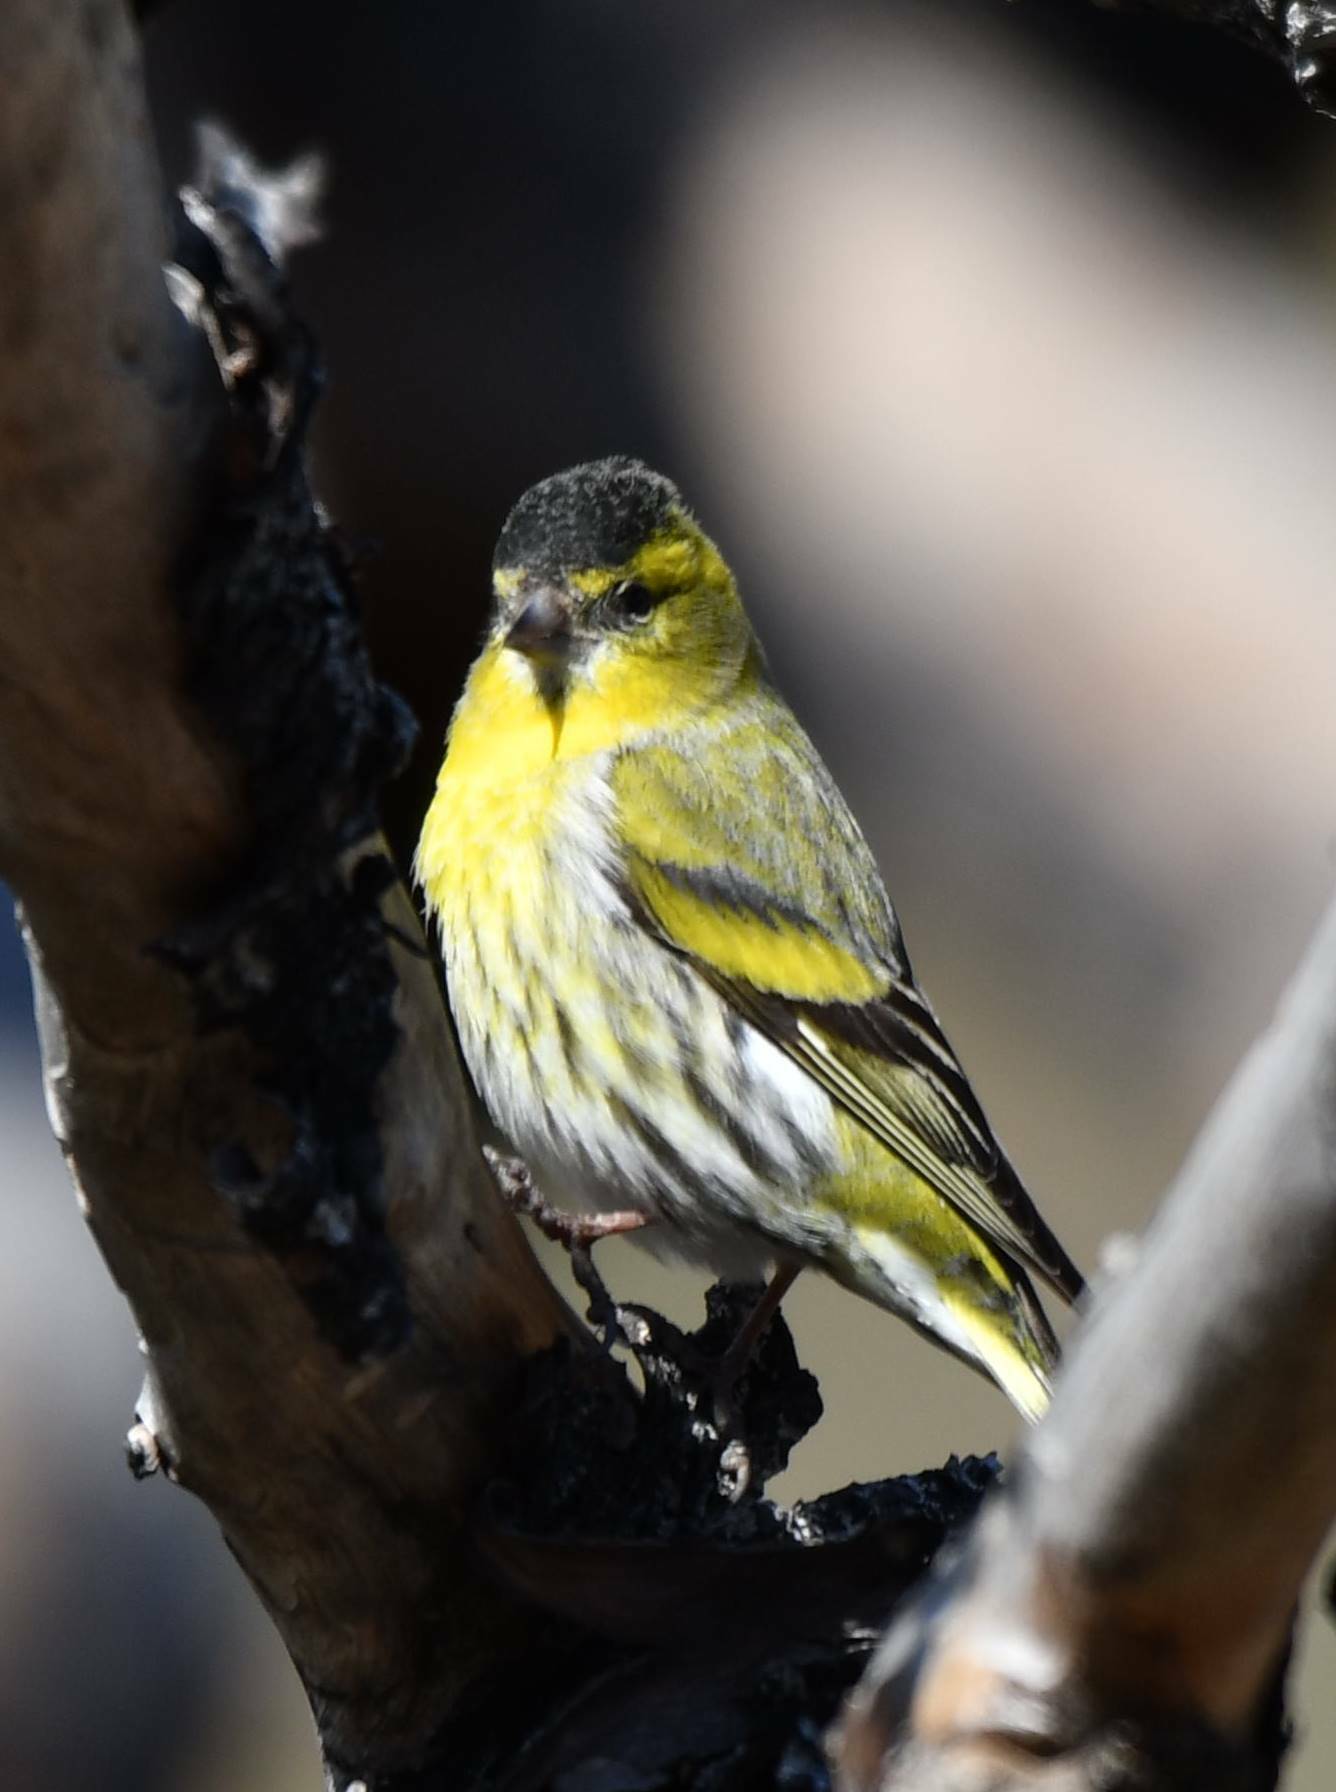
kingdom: Animalia
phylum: Chordata
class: Aves
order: Passeriformes
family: Fringillidae
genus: Spinus
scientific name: Spinus spinus
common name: Eurasian siskin
